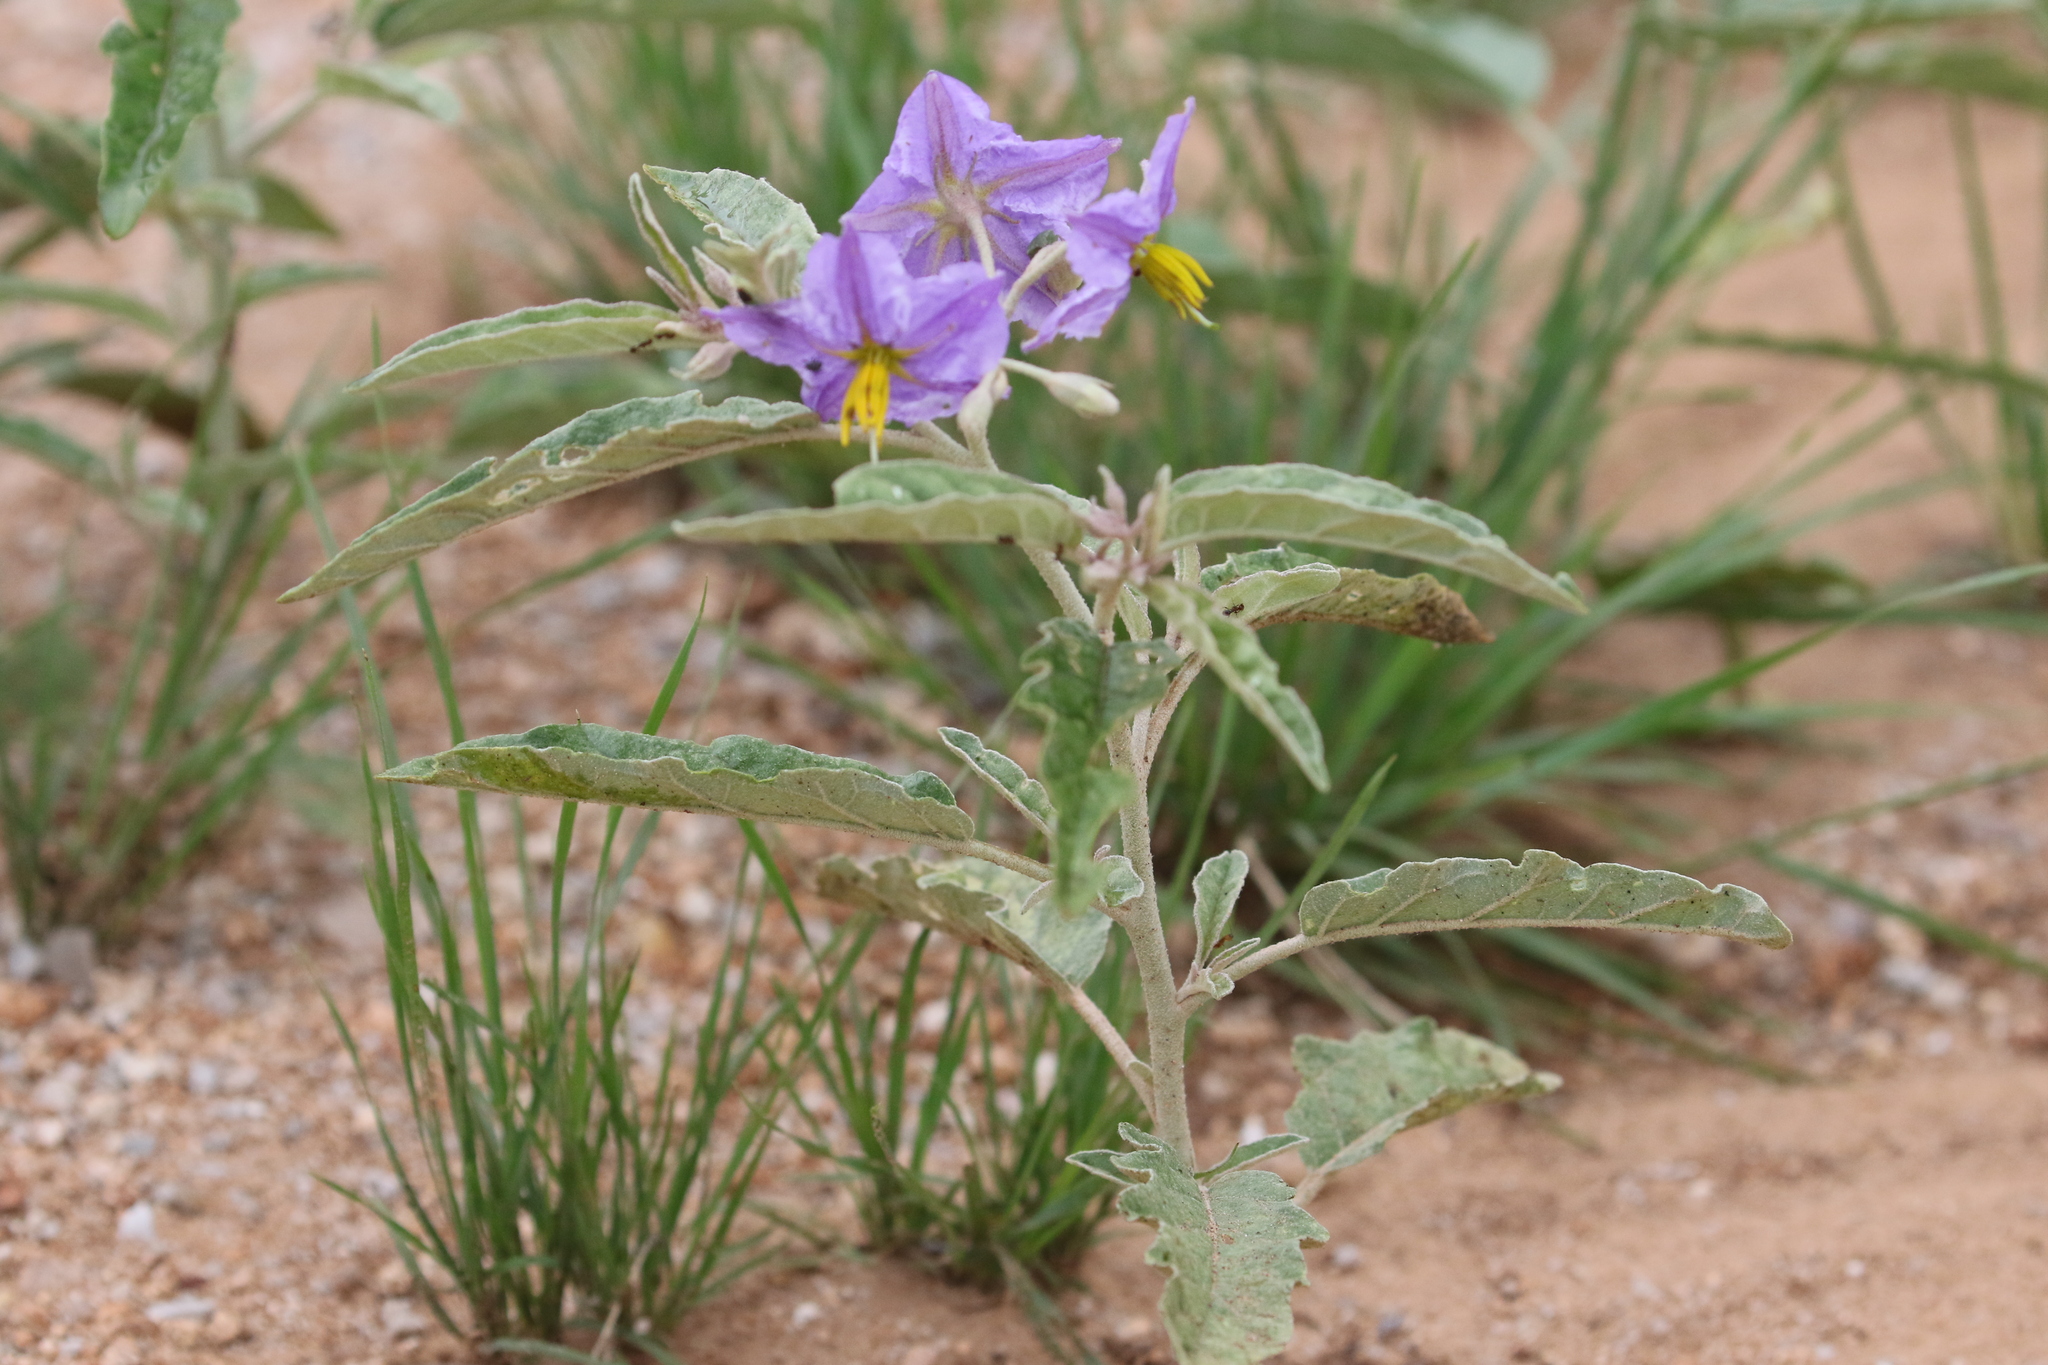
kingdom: Plantae
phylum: Tracheophyta
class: Magnoliopsida
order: Solanales
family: Solanaceae
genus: Solanum
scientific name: Solanum elaeagnifolium
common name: Silverleaf nightshade
